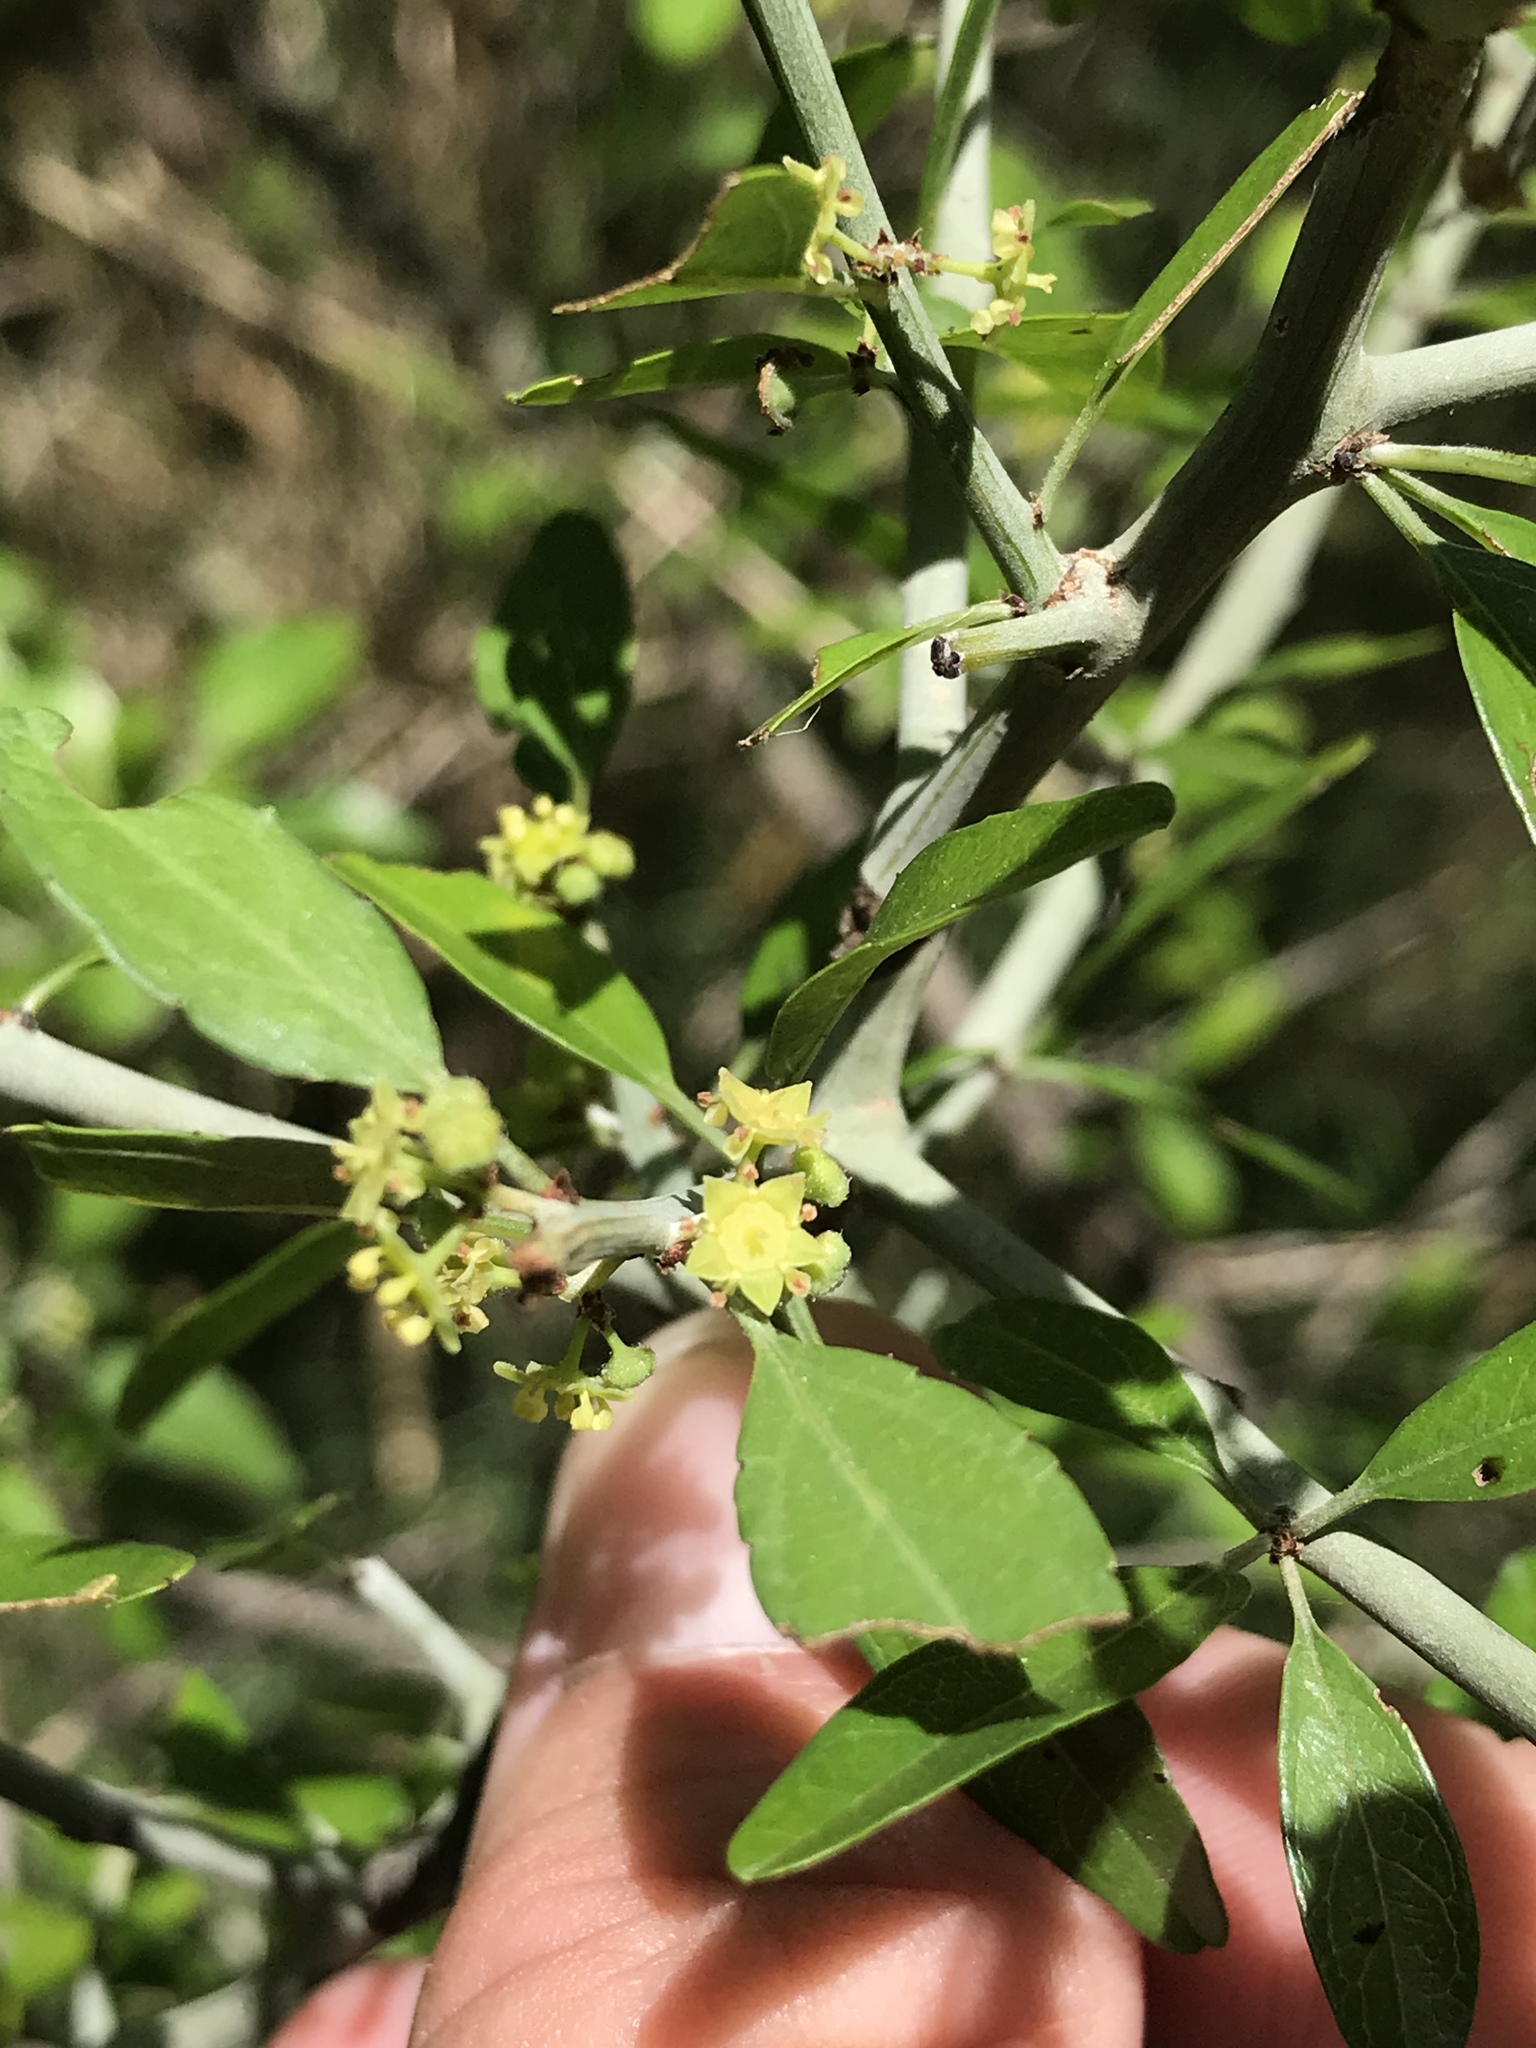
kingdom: Plantae
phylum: Tracheophyta
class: Magnoliopsida
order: Rosales
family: Rhamnaceae
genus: Sarcomphalus
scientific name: Sarcomphalus obtusifolius
